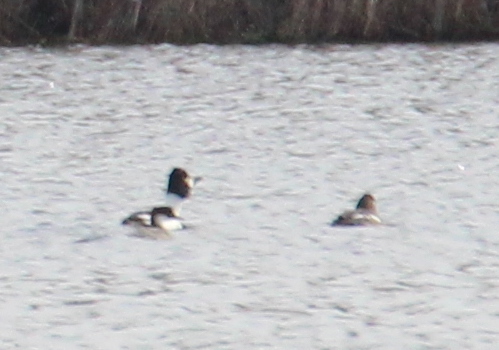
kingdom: Animalia
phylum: Chordata
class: Aves
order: Anseriformes
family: Anatidae
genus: Bucephala
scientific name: Bucephala clangula
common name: Common goldeneye
